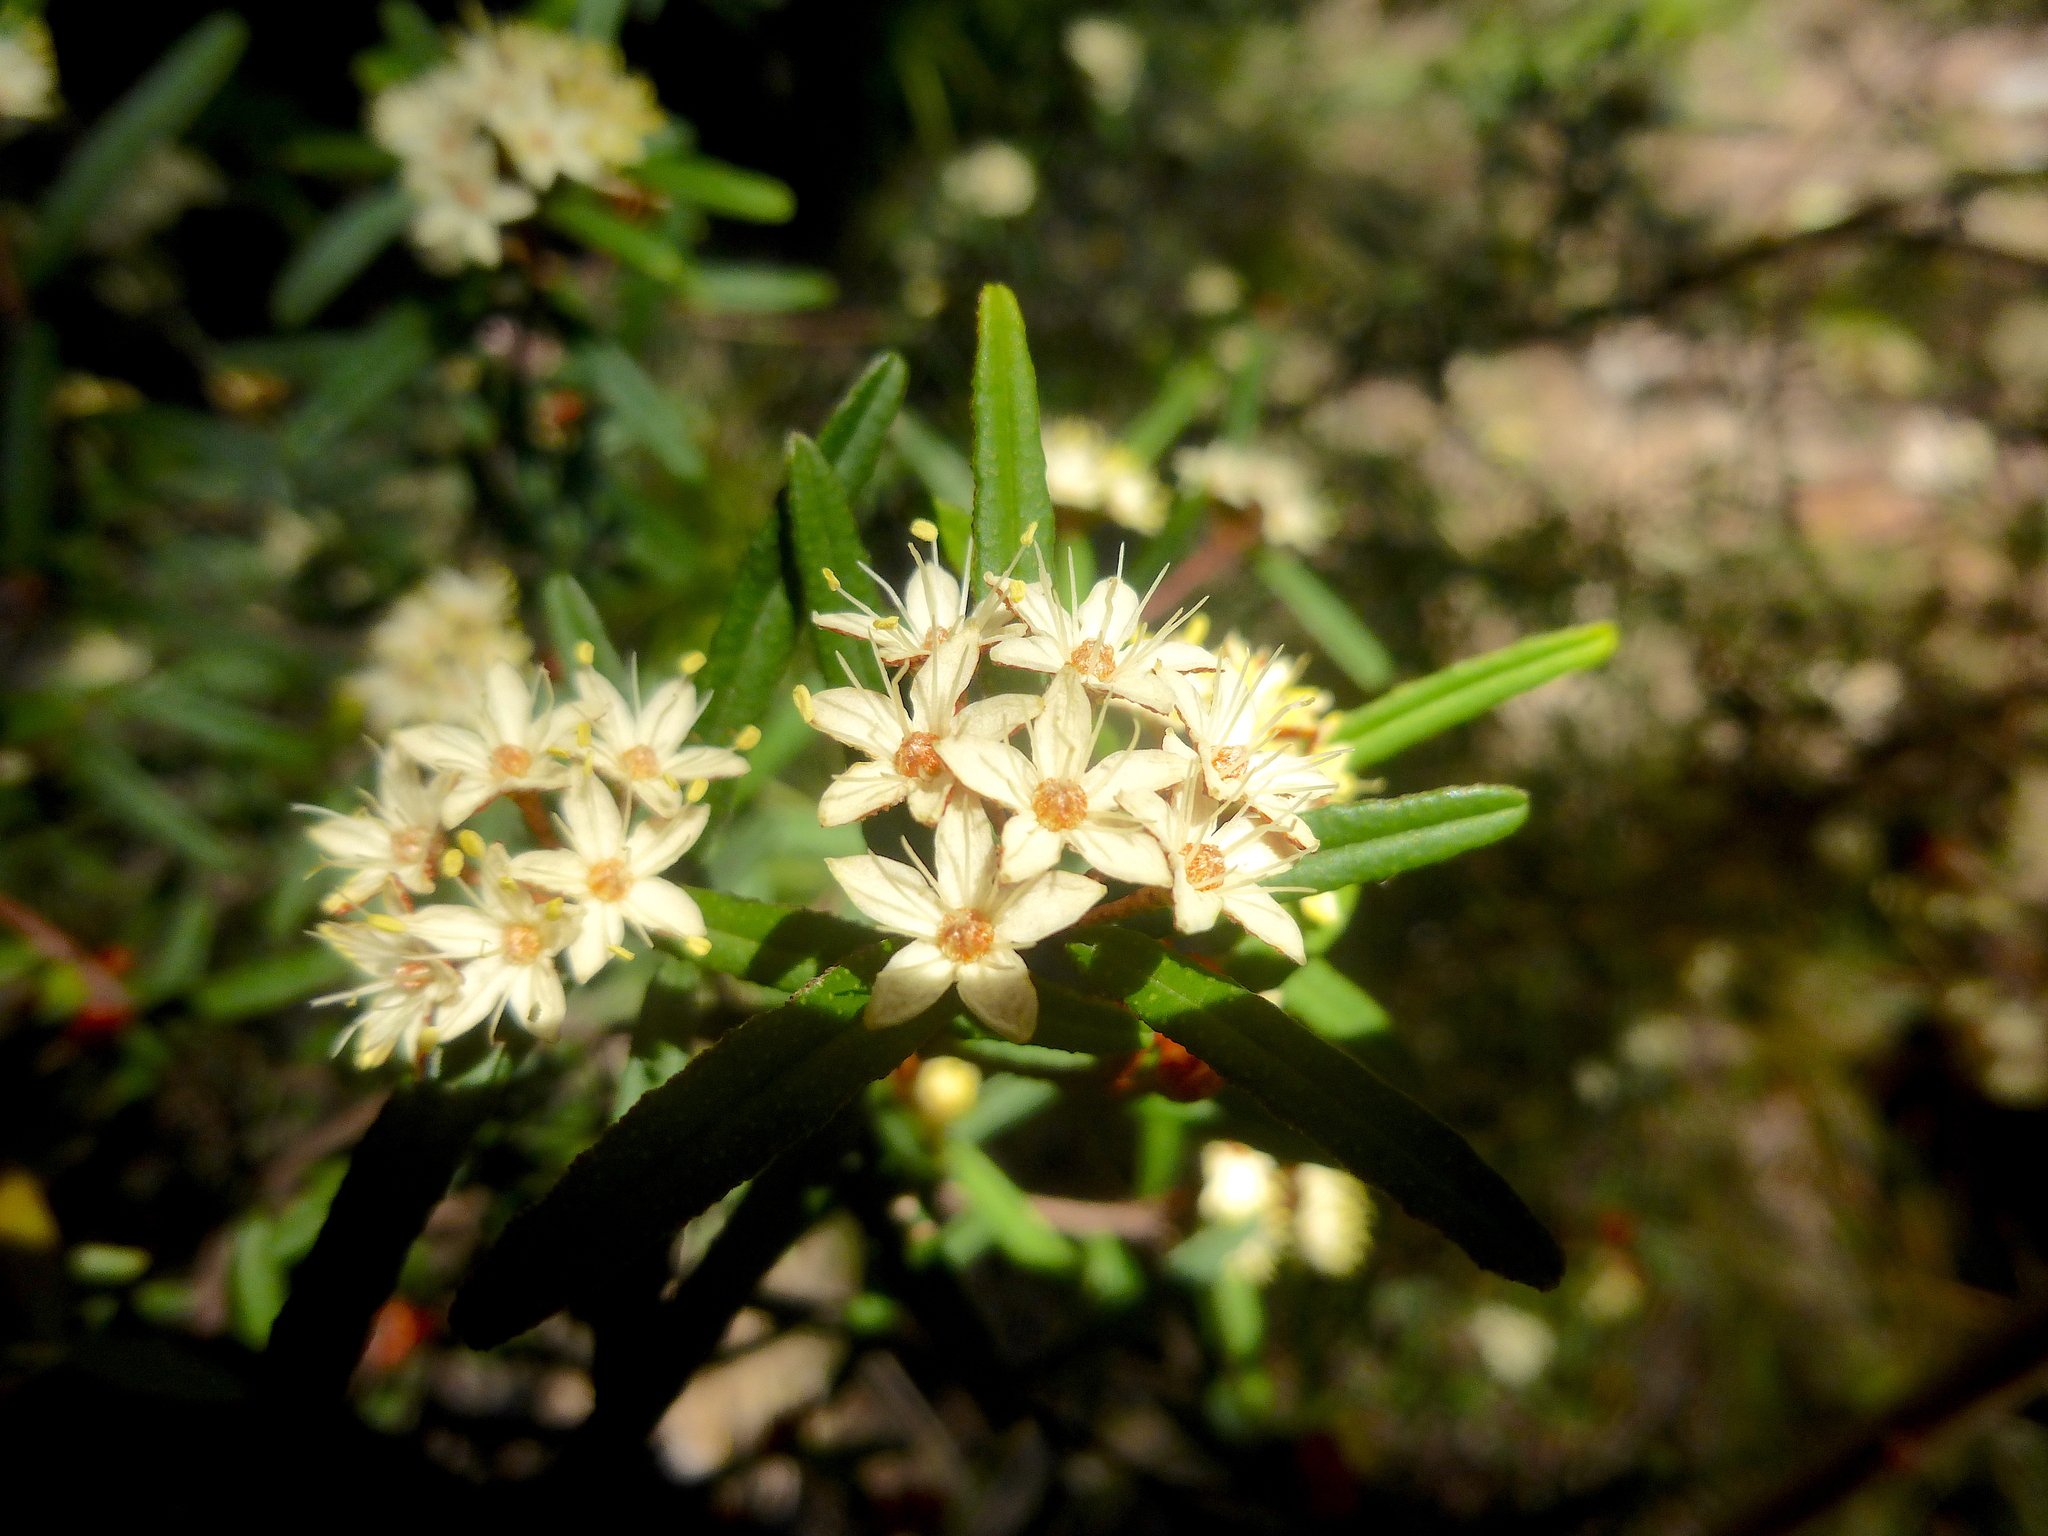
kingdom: Plantae
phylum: Tracheophyta
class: Magnoliopsida
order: Sapindales
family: Rutaceae
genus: Phebalium
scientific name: Phebalium squamulosum
